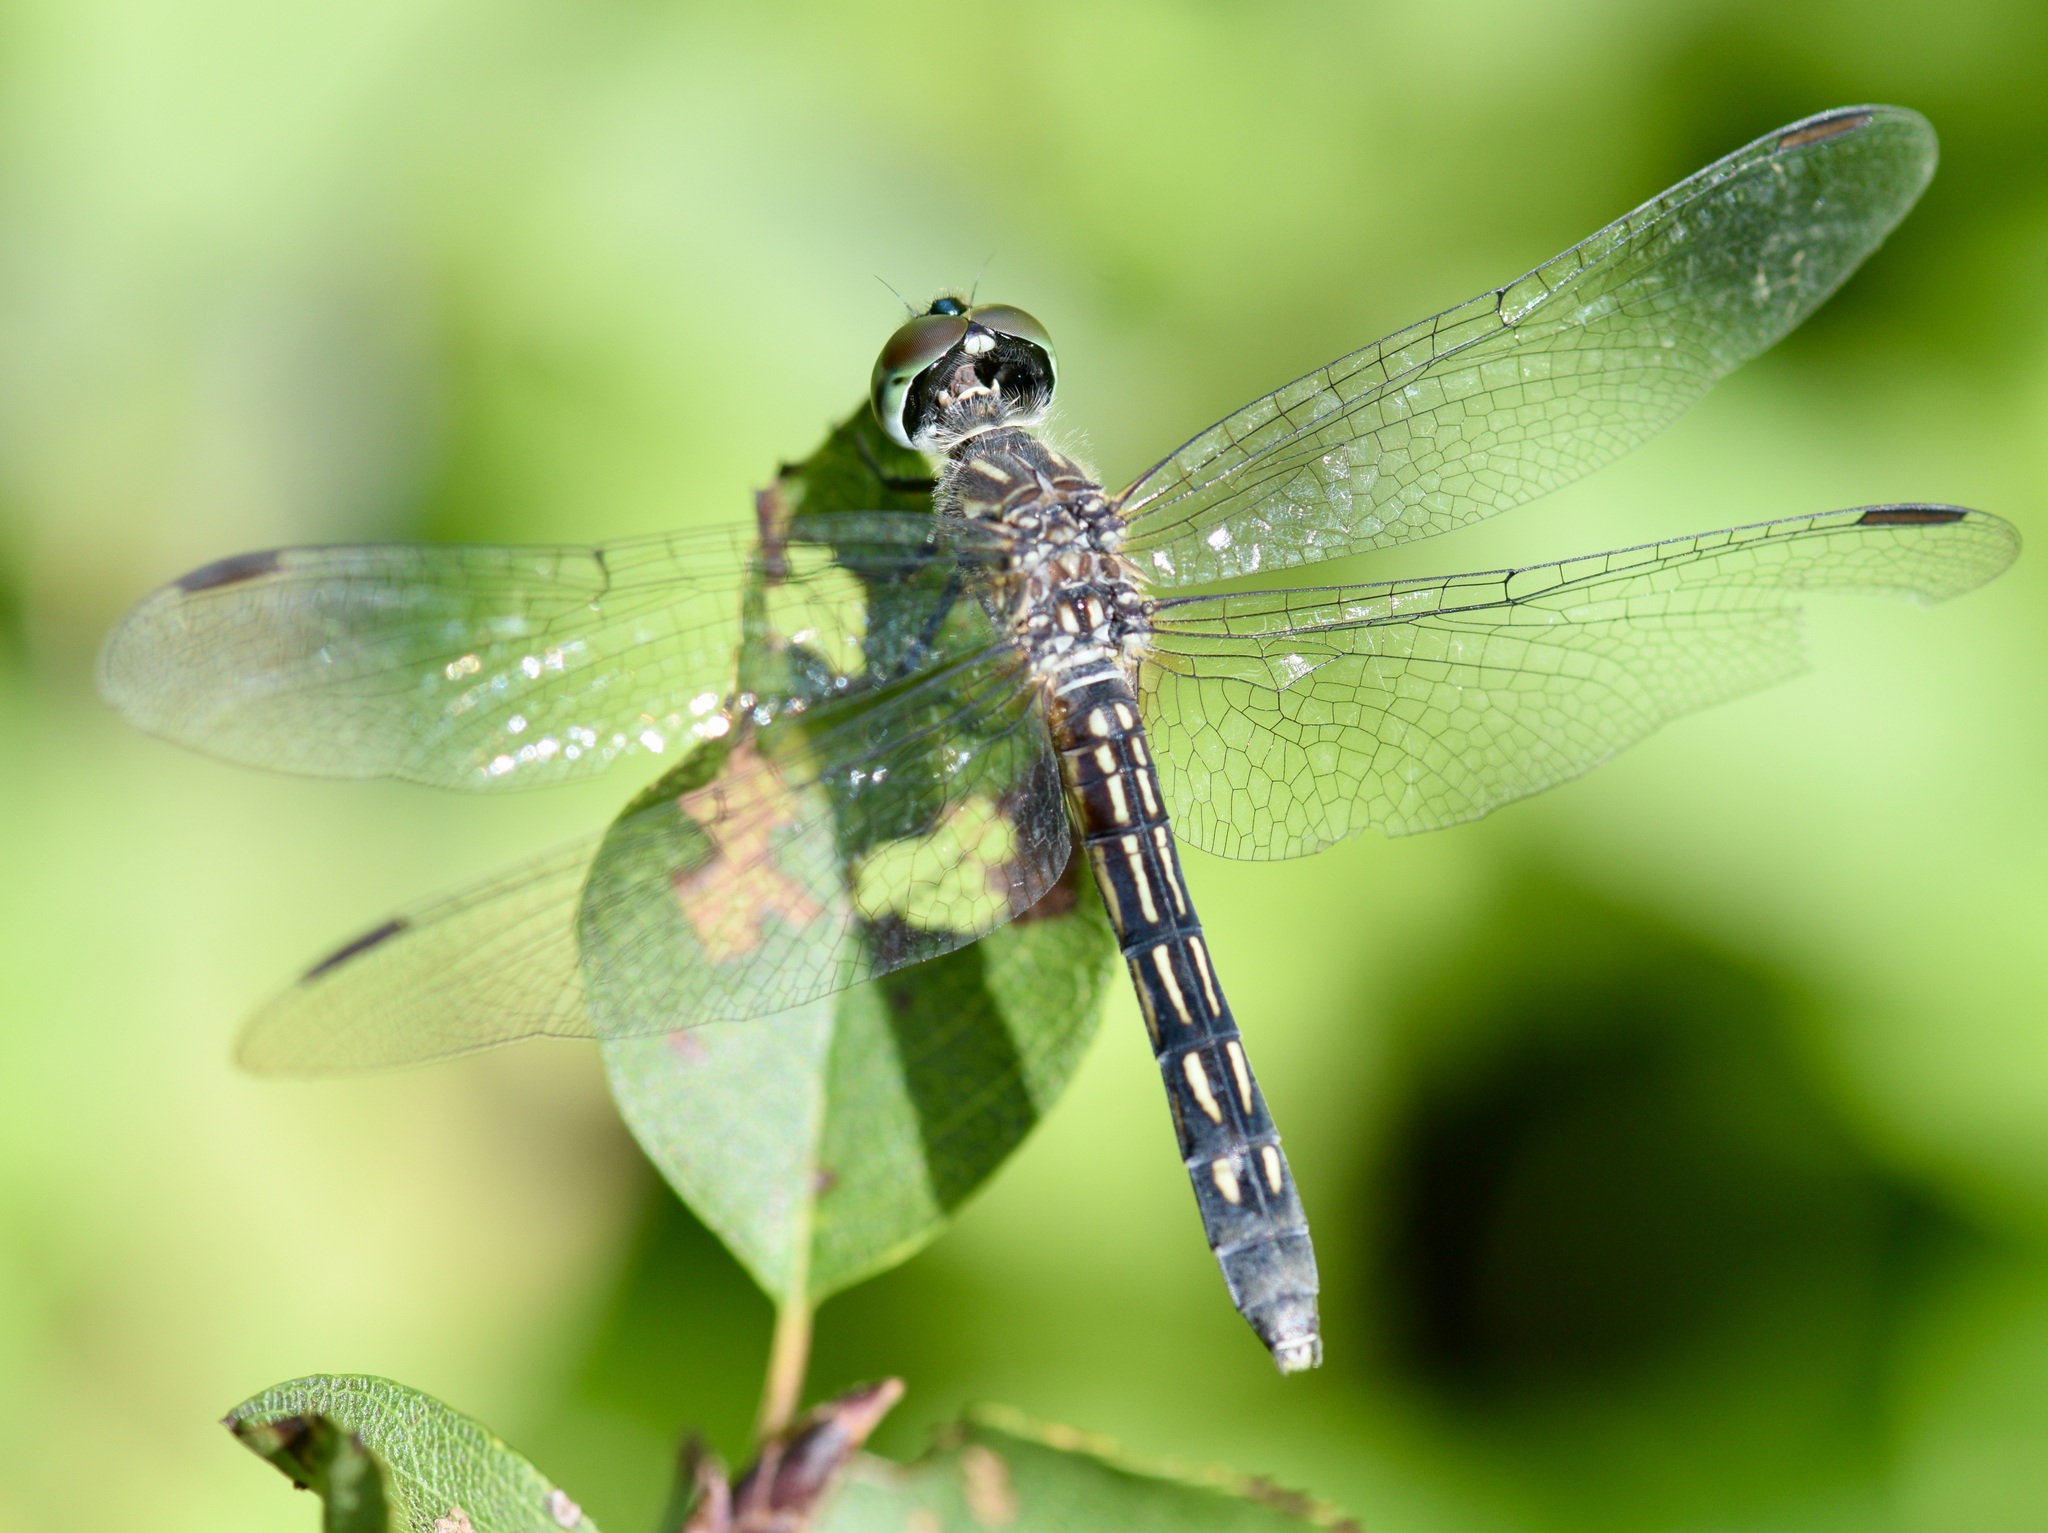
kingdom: Animalia
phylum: Arthropoda
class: Insecta
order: Odonata
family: Libellulidae
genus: Pachydiplax
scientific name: Pachydiplax longipennis
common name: Blue dasher
